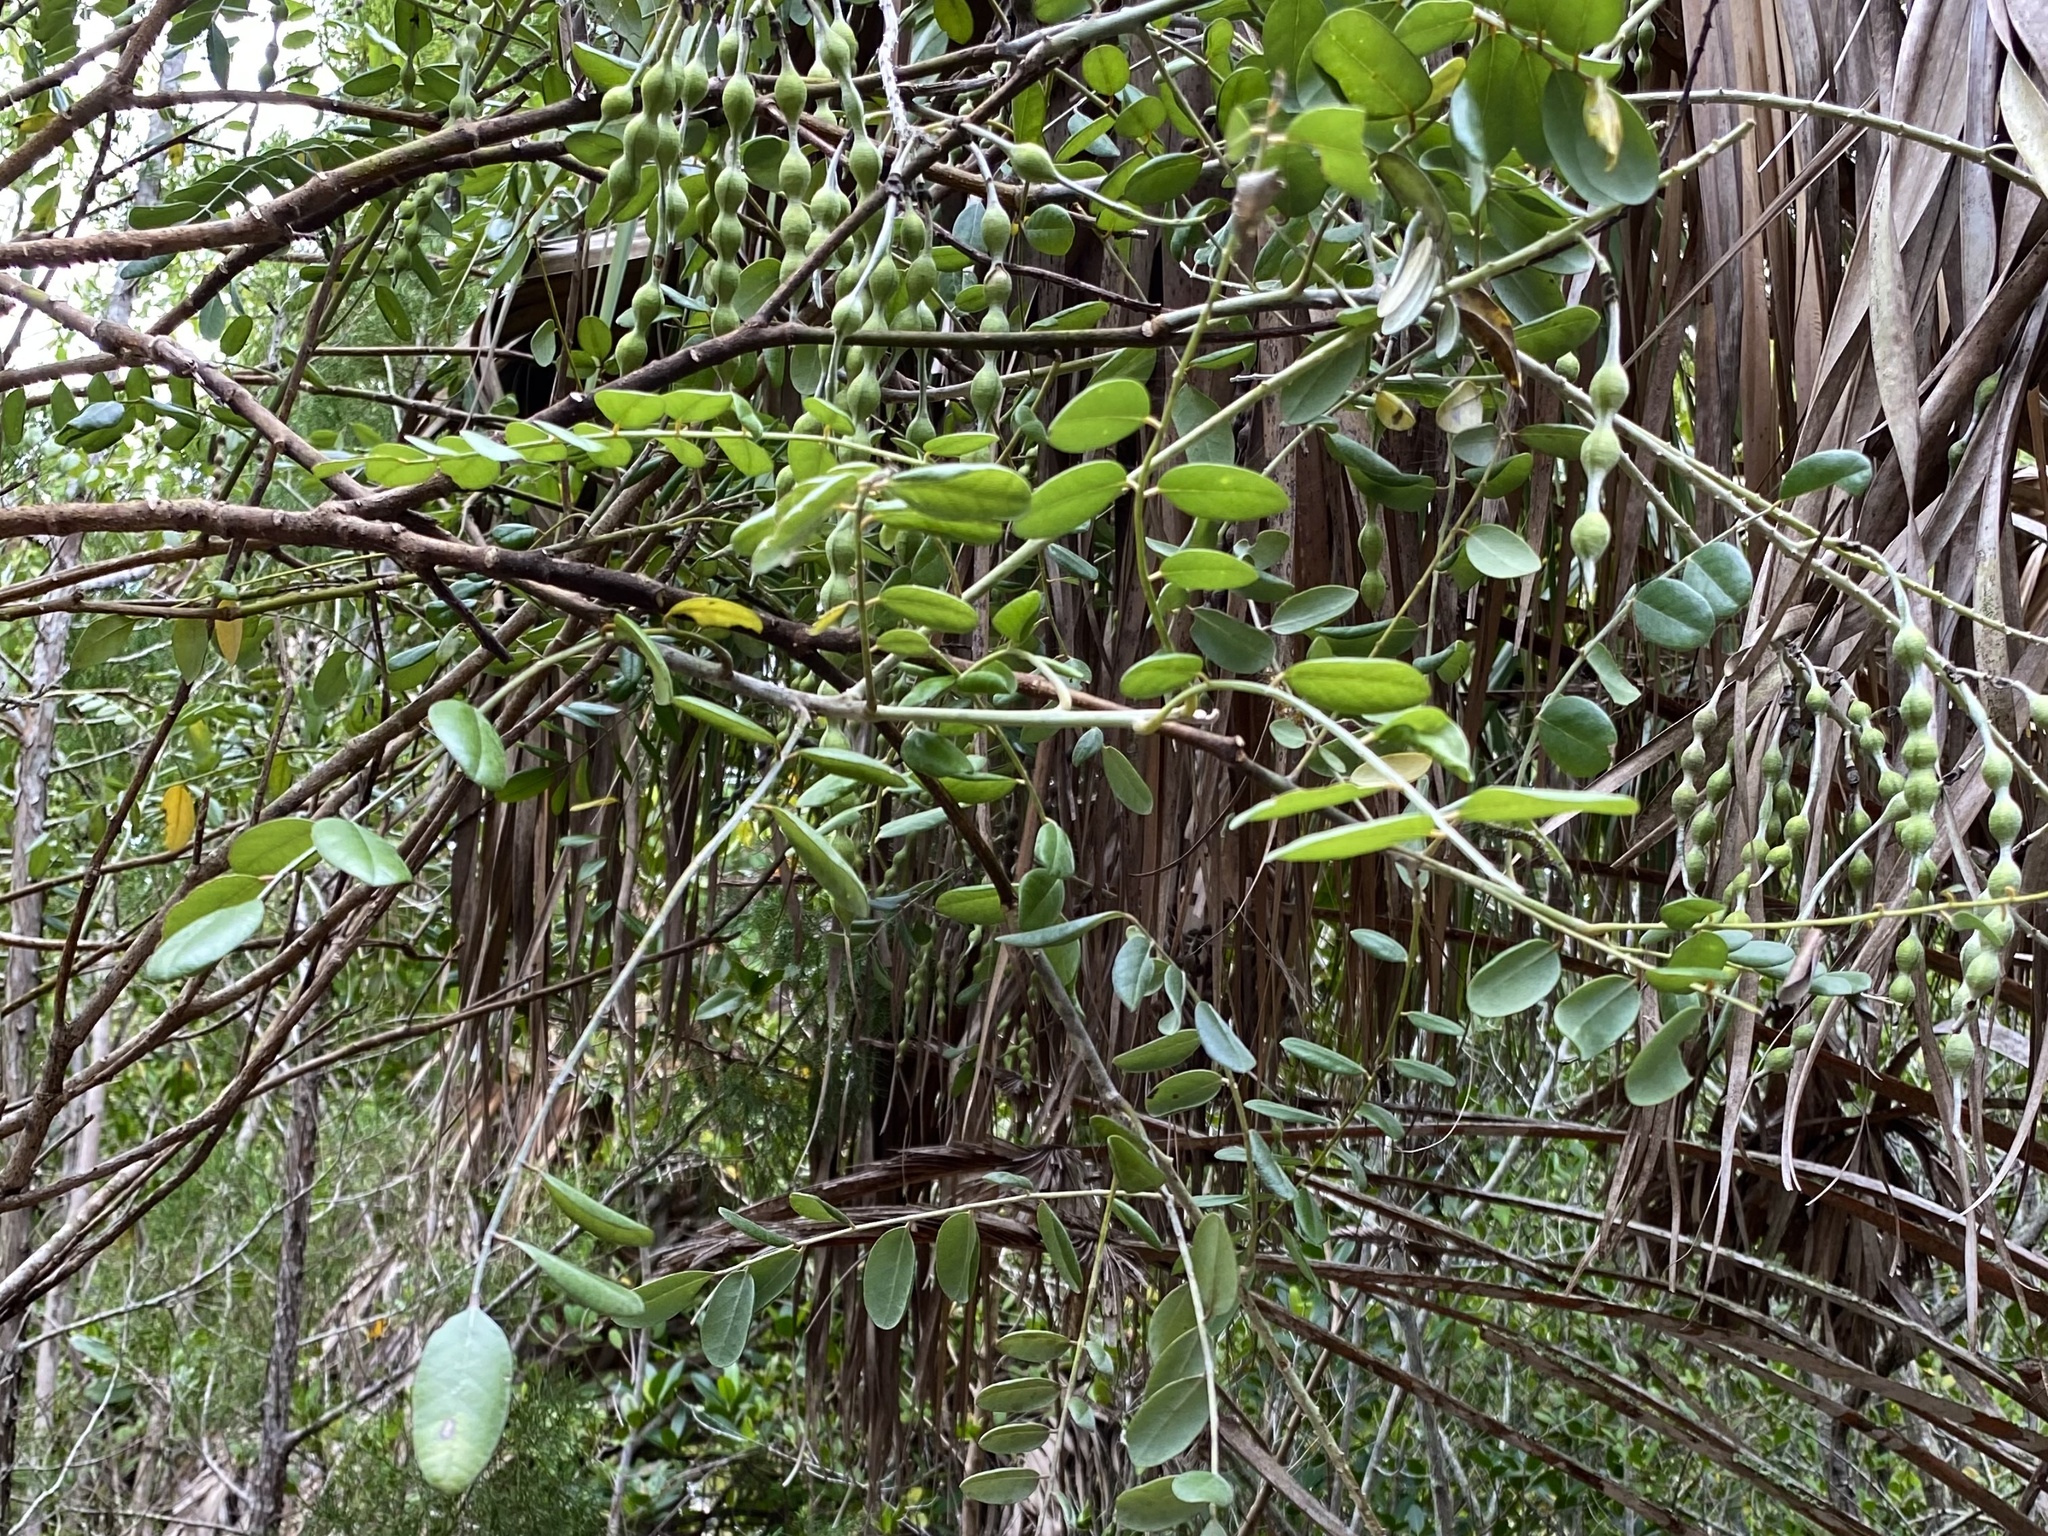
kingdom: Plantae
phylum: Tracheophyta
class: Magnoliopsida
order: Fabales
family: Fabaceae
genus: Sophora
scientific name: Sophora tomentosa
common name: Yellow necklacepod
